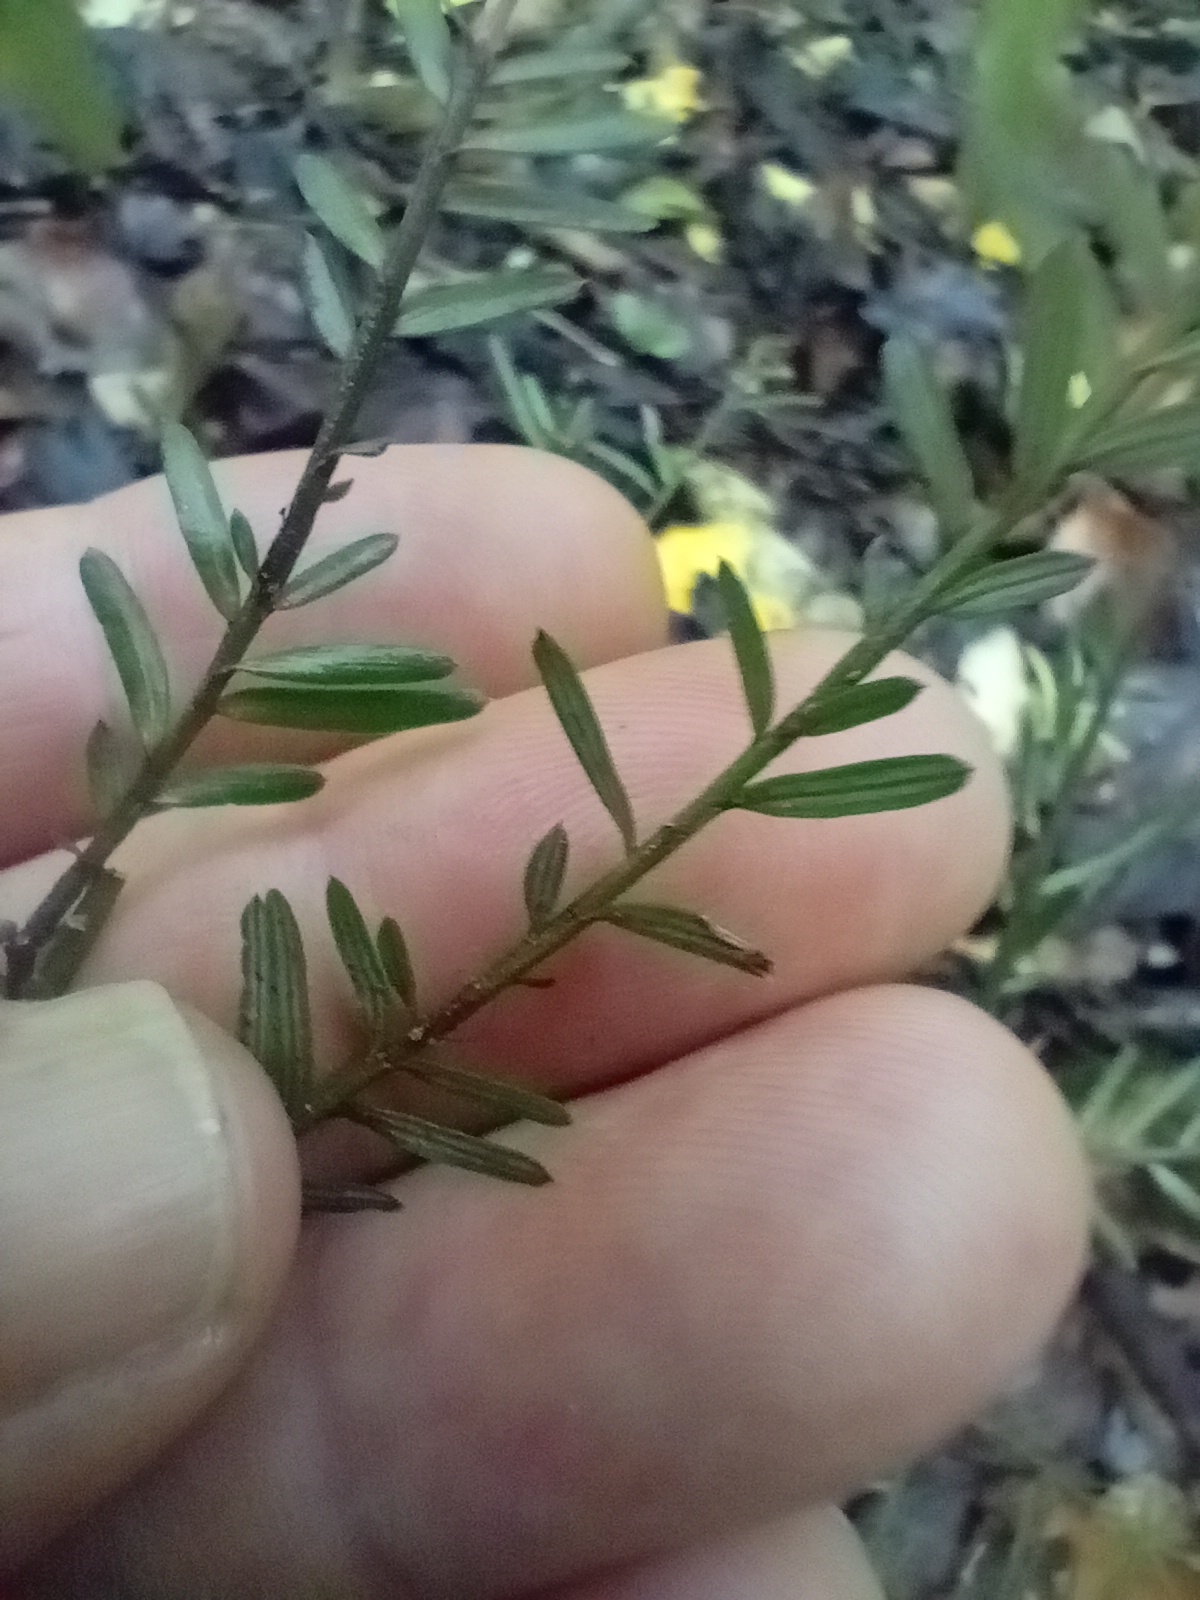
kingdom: Plantae
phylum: Tracheophyta
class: Pinopsida
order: Pinales
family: Podocarpaceae
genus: Prumnopitys
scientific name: Prumnopitys taxifolia
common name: Matai
